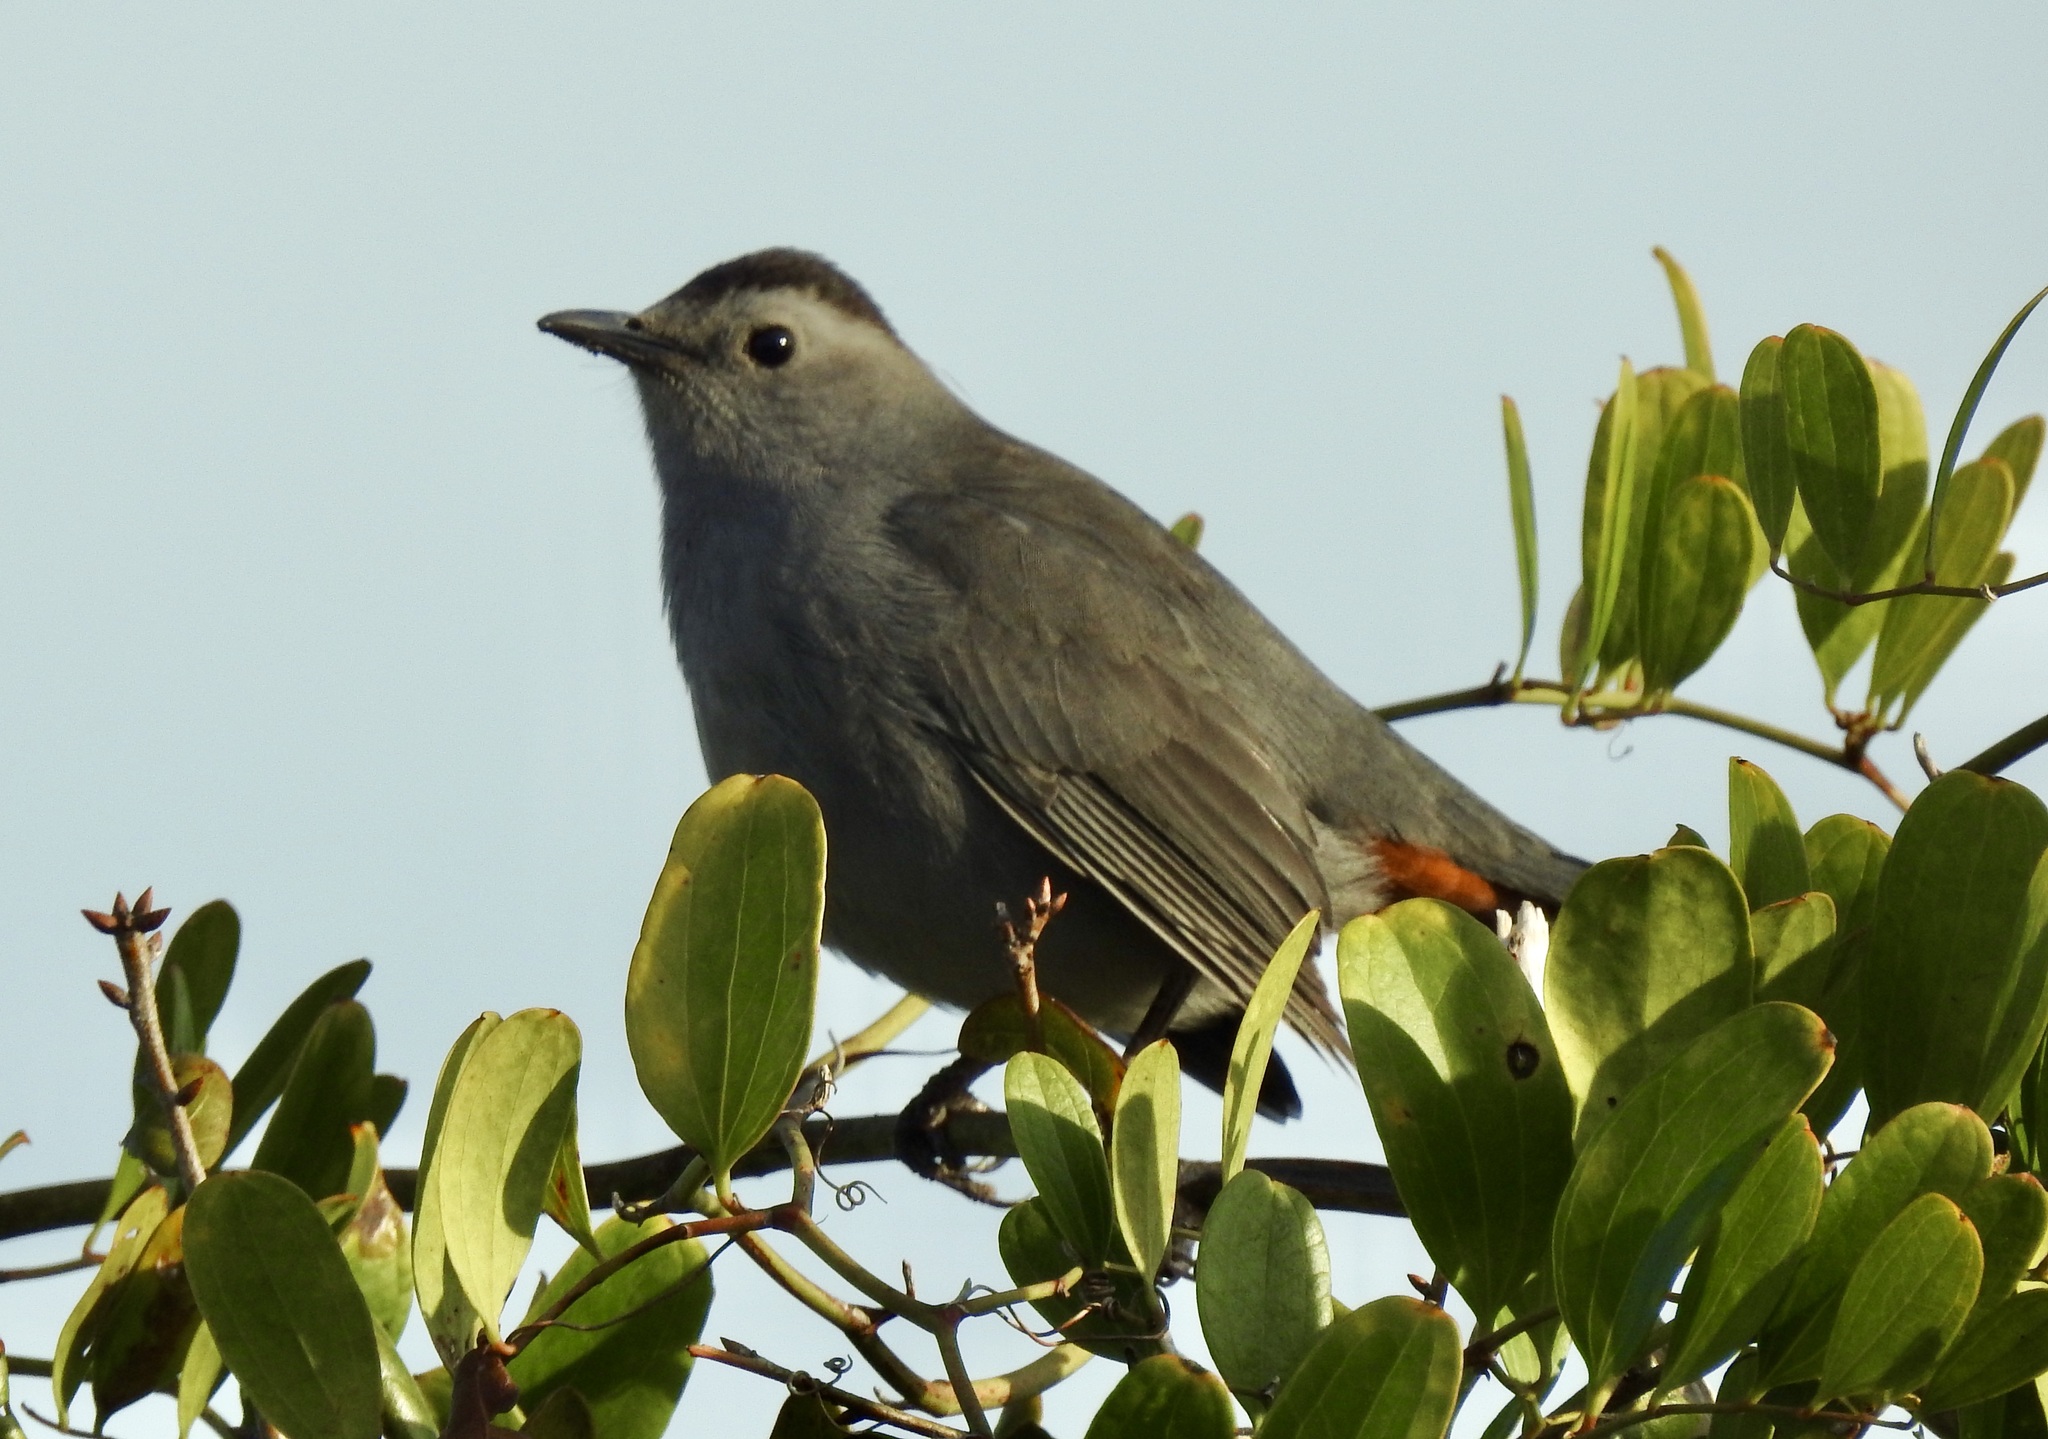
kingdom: Animalia
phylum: Chordata
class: Aves
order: Passeriformes
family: Mimidae
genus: Dumetella
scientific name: Dumetella carolinensis
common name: Gray catbird
